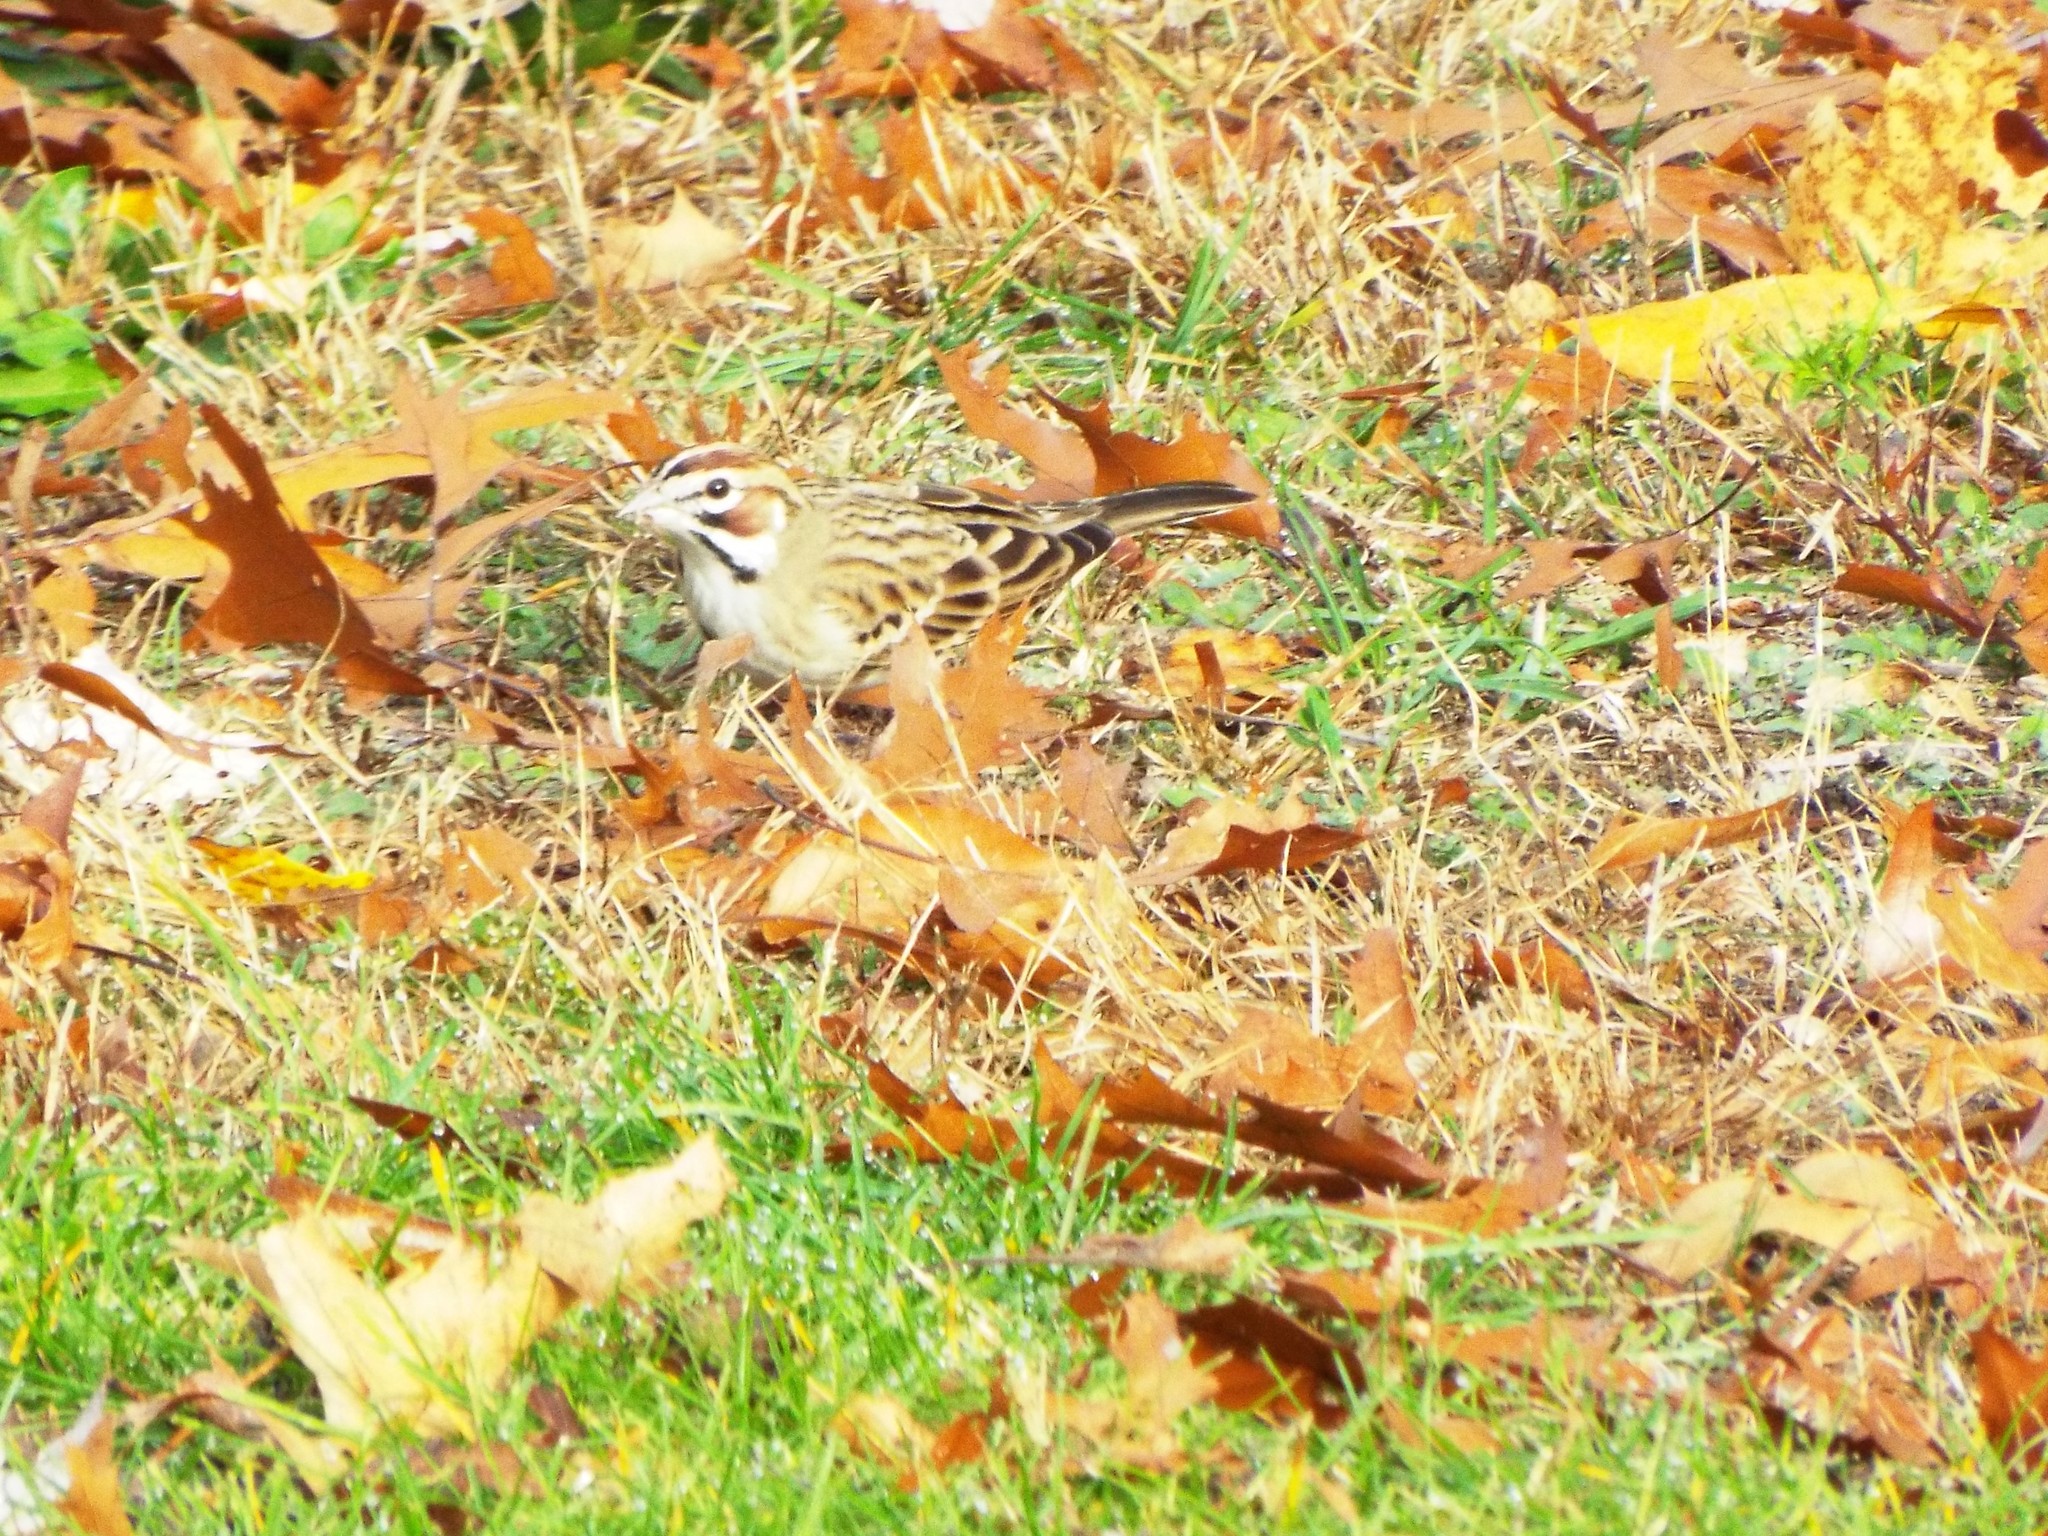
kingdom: Animalia
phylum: Chordata
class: Aves
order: Passeriformes
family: Passerellidae
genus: Chondestes
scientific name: Chondestes grammacus
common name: Lark sparrow
